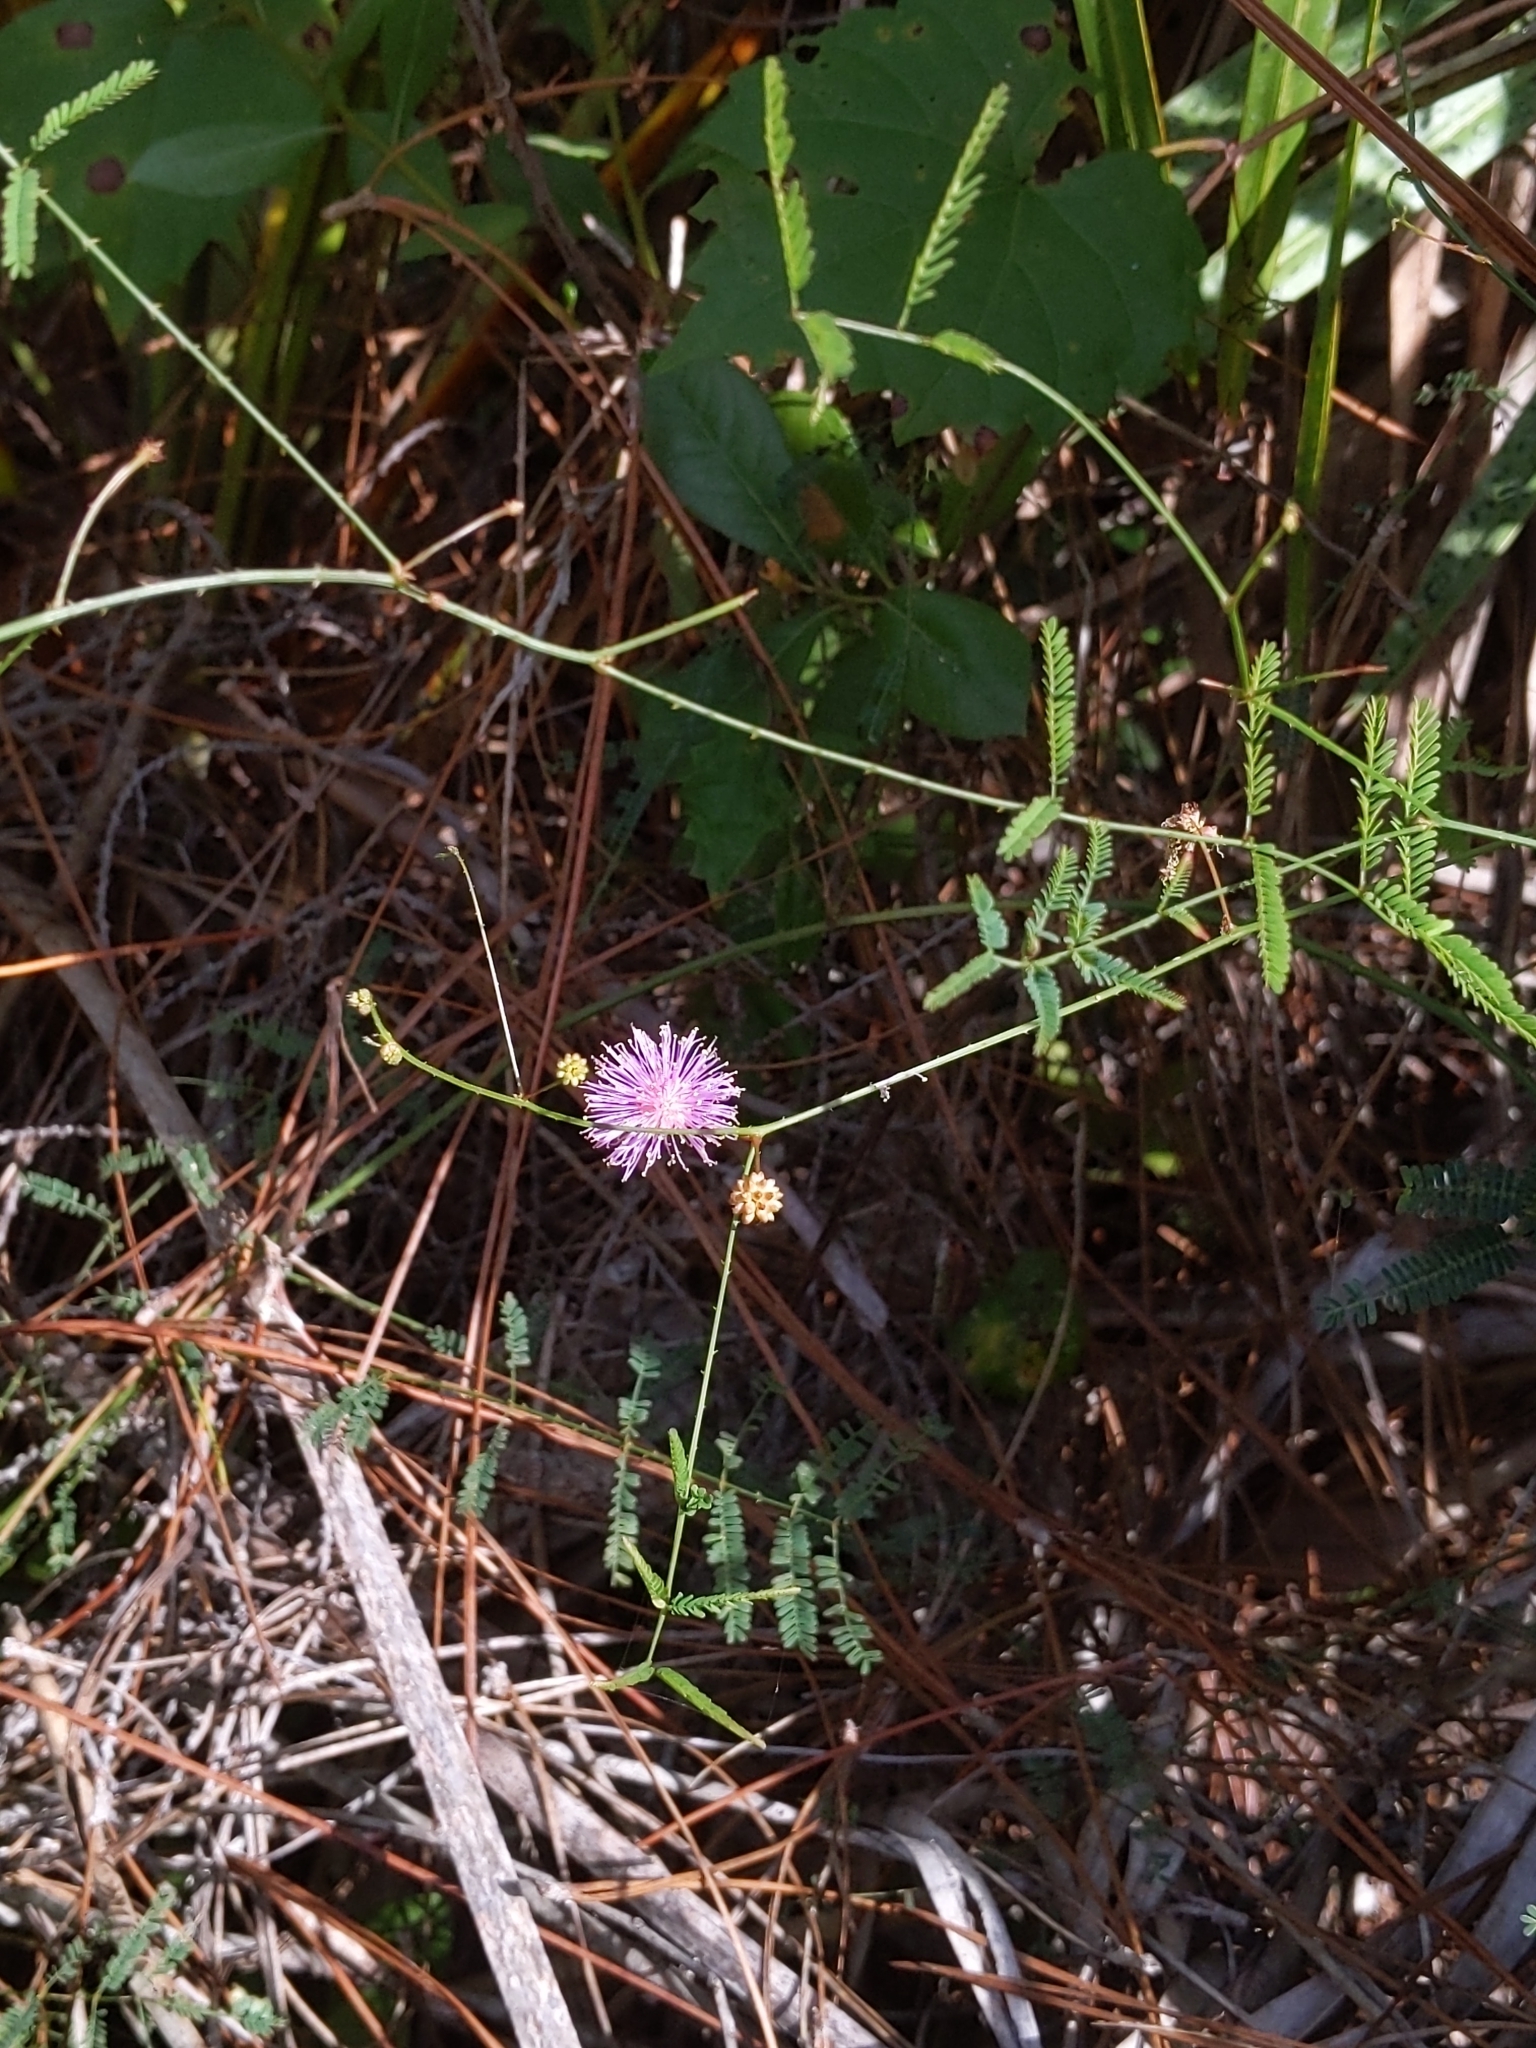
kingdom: Plantae
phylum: Tracheophyta
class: Magnoliopsida
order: Fabales
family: Fabaceae
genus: Mimosa
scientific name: Mimosa quadrivalvis
